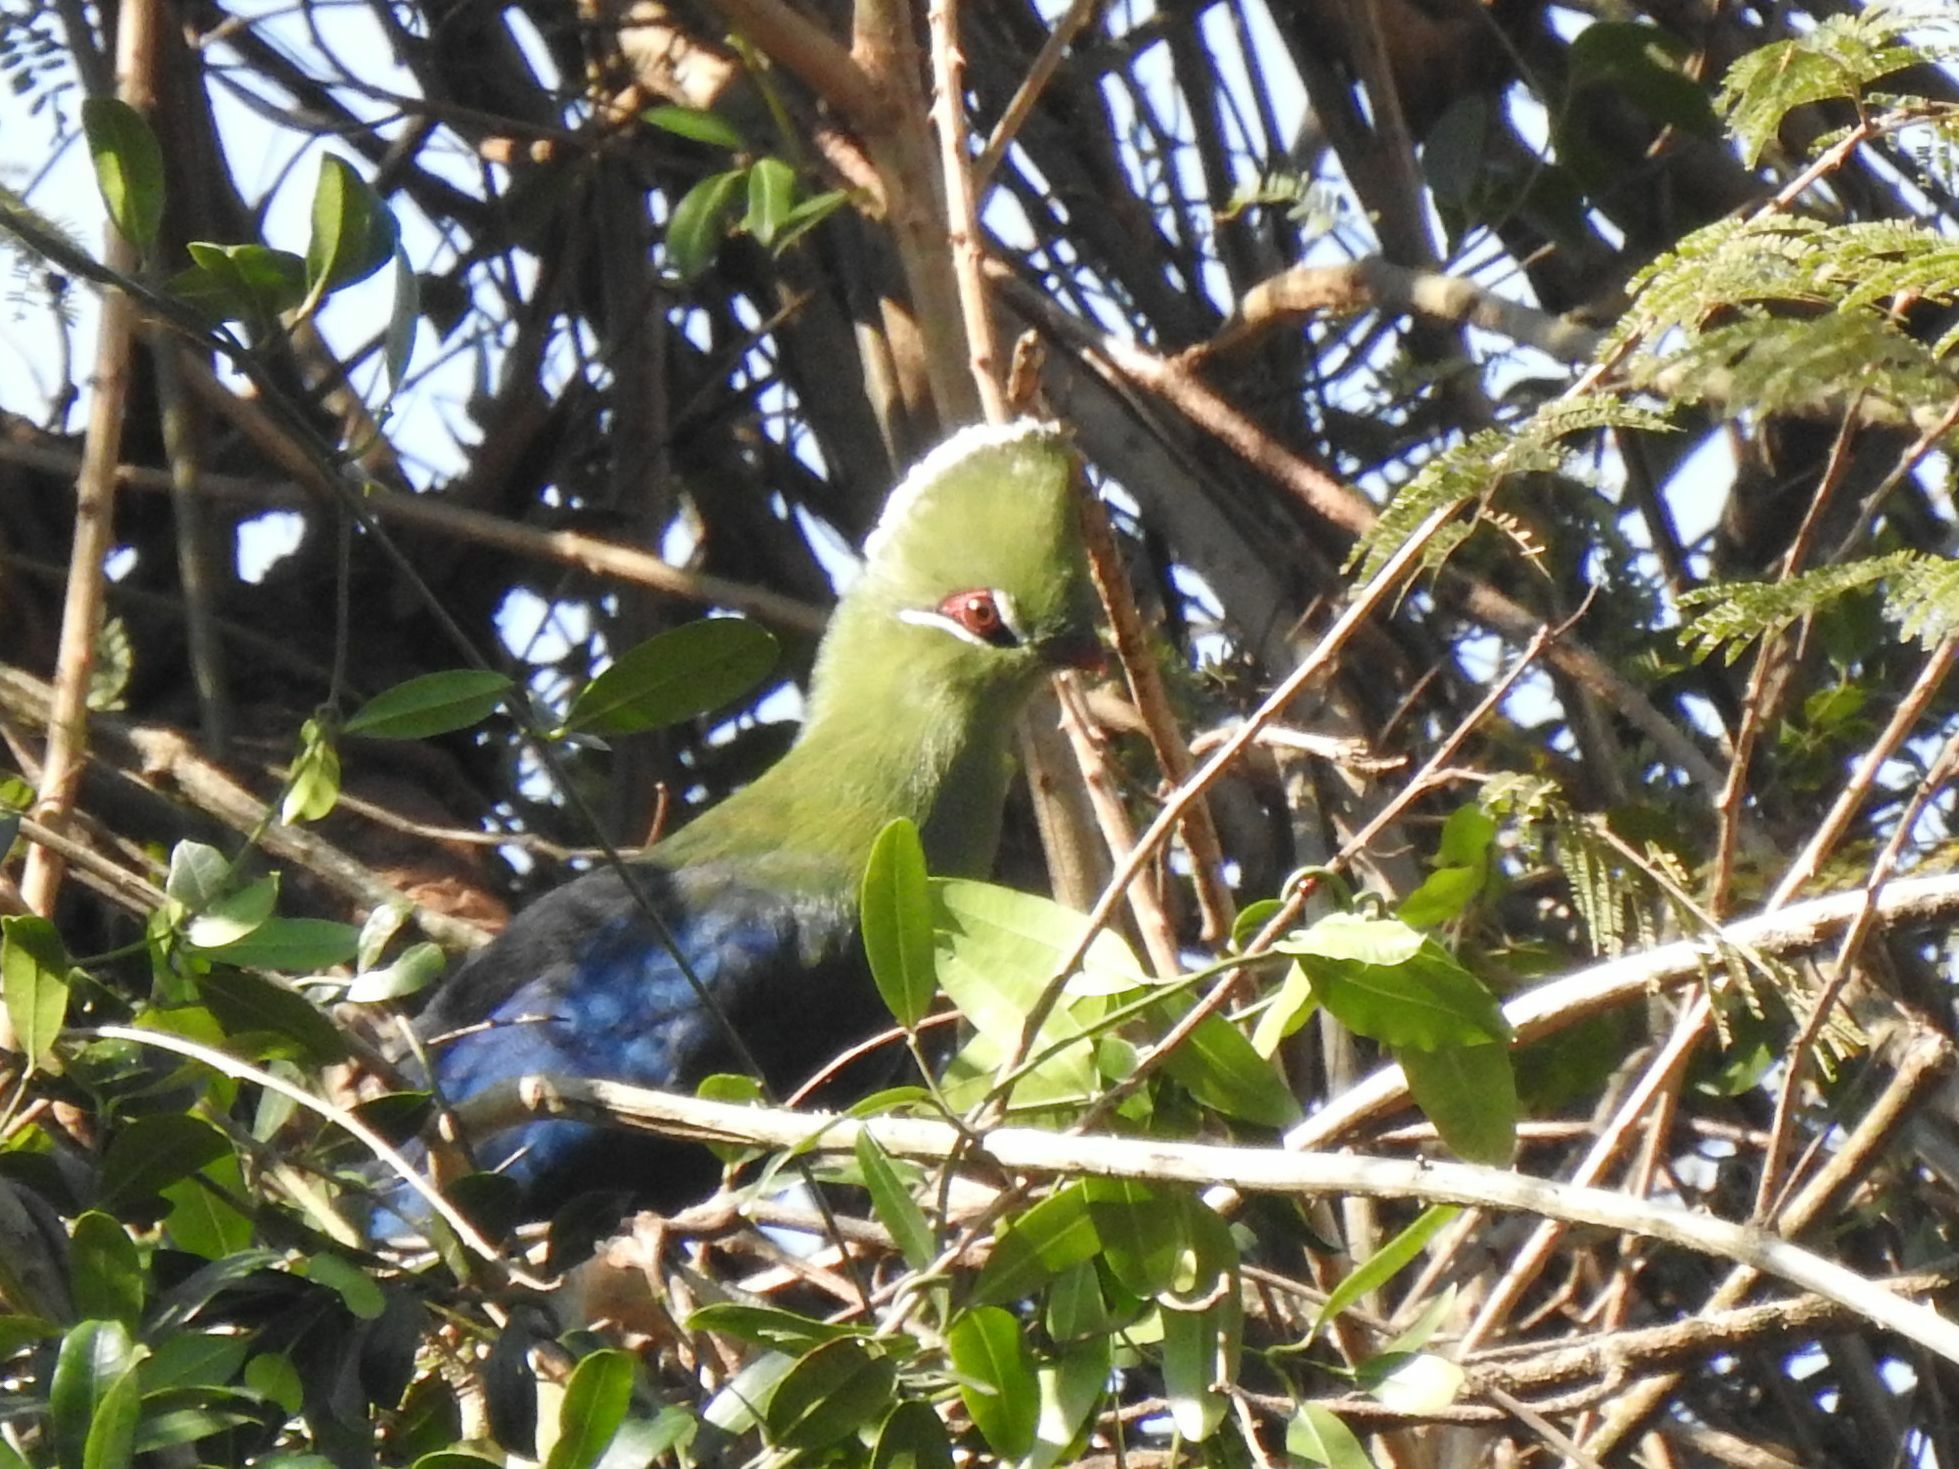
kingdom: Animalia
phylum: Chordata
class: Aves
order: Musophagiformes
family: Musophagidae
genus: Tauraco
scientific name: Tauraco corythaix
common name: Knysna turaco
